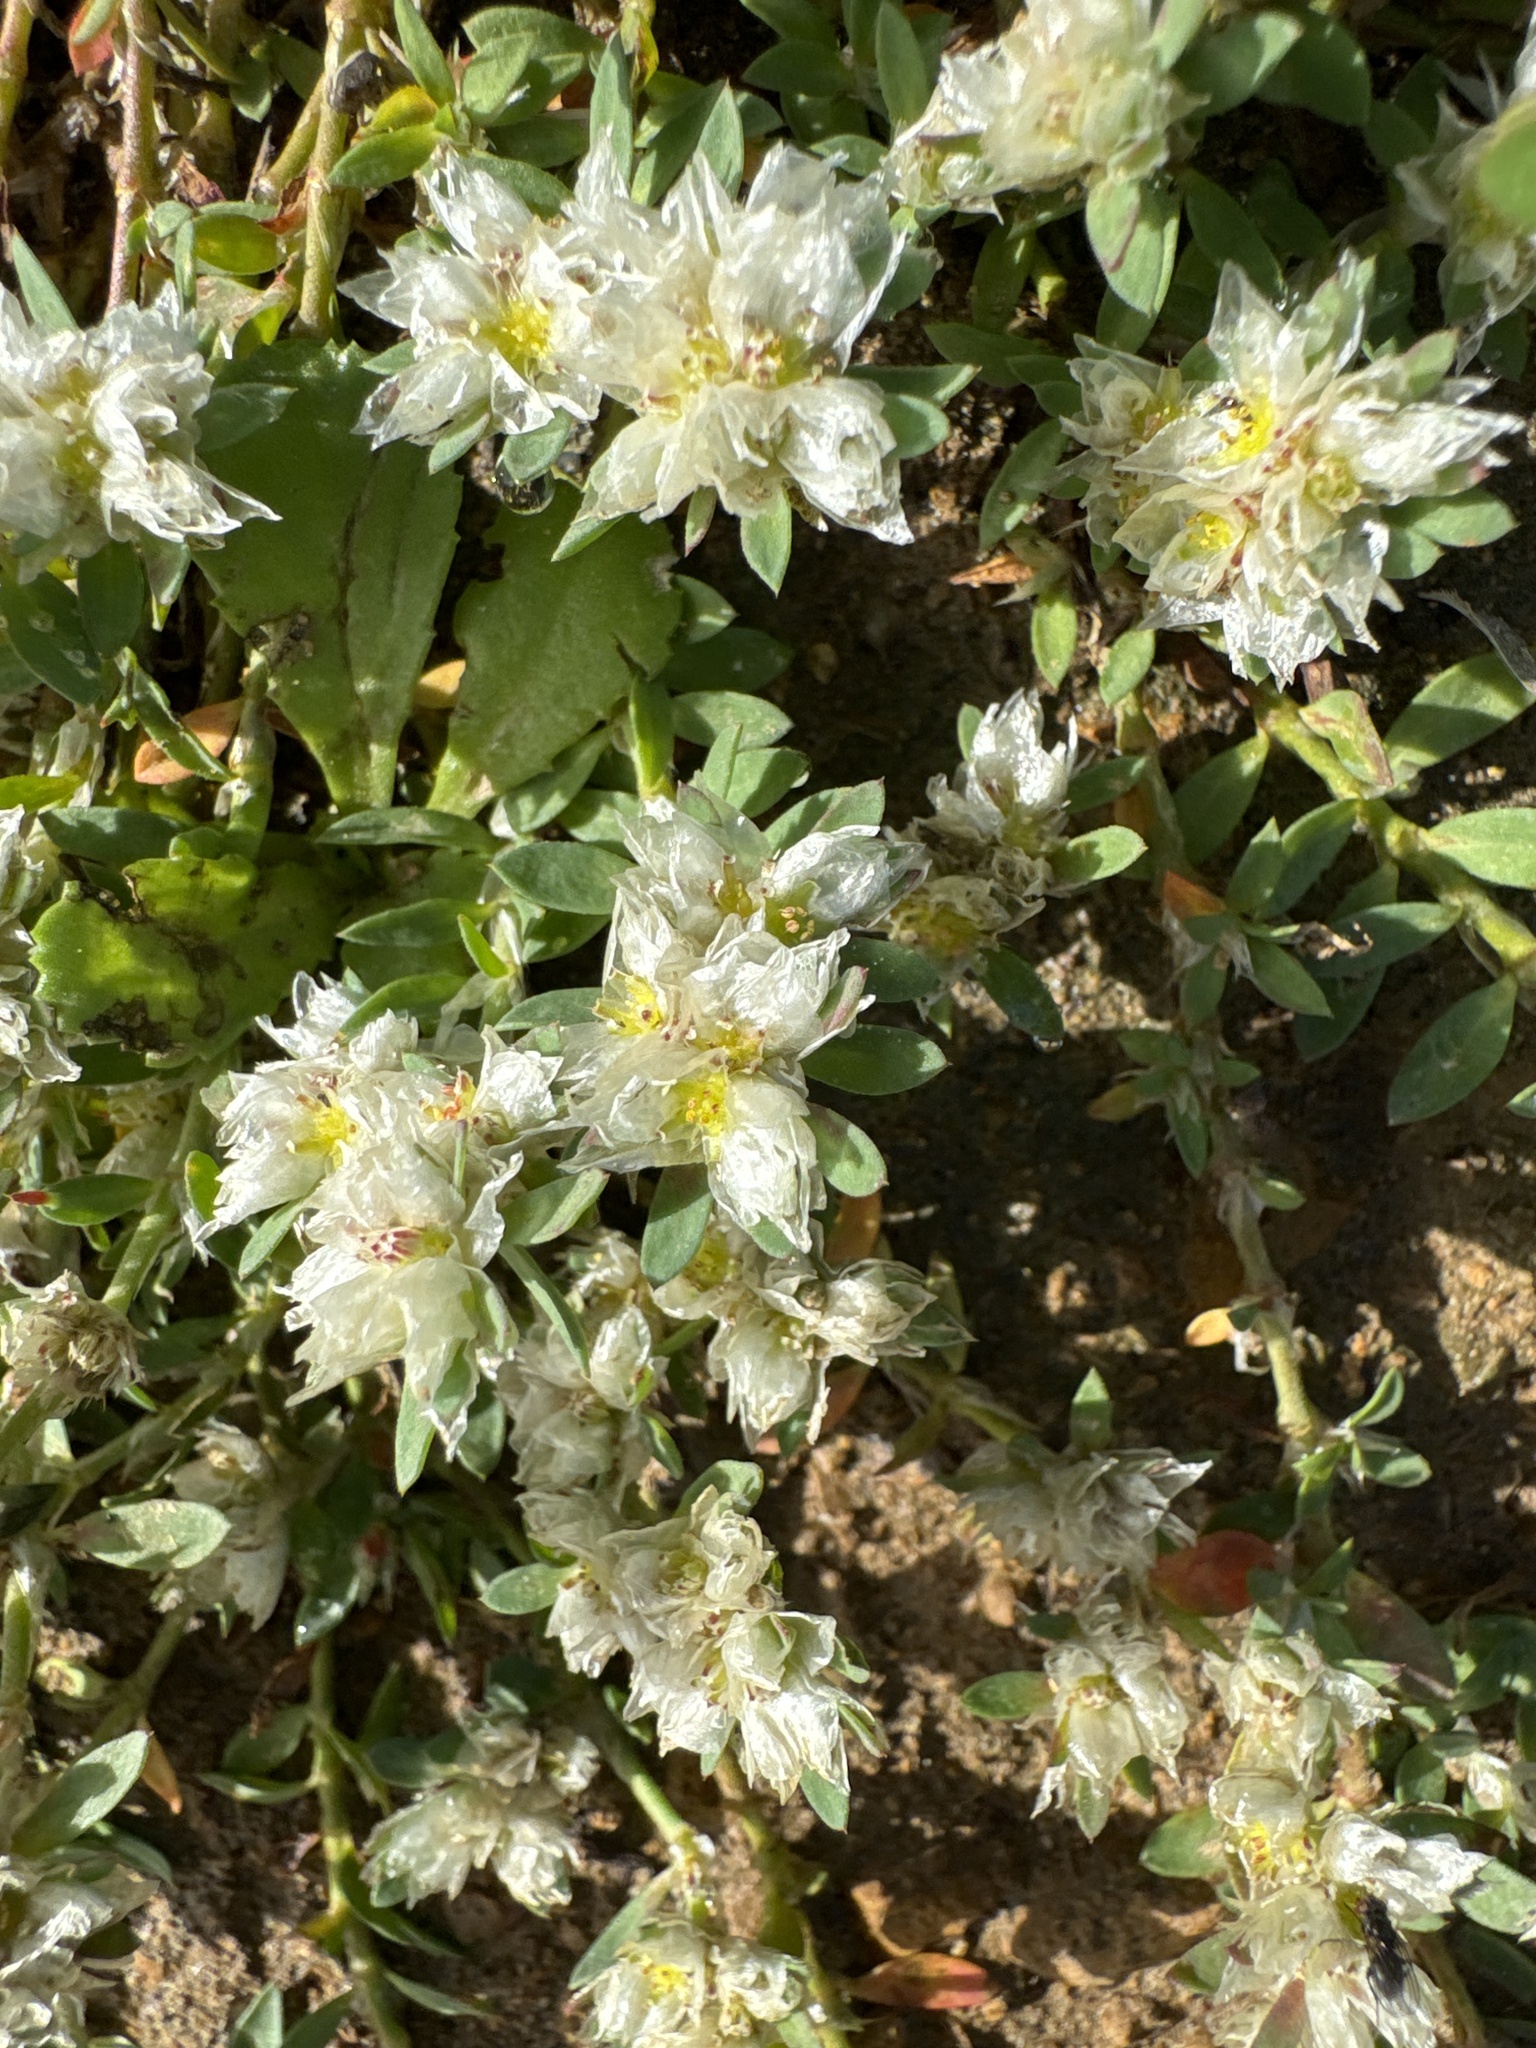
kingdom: Plantae
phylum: Tracheophyta
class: Magnoliopsida
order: Caryophyllales
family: Caryophyllaceae
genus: Paronychia
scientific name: Paronychia argentea
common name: Silver nailroot
